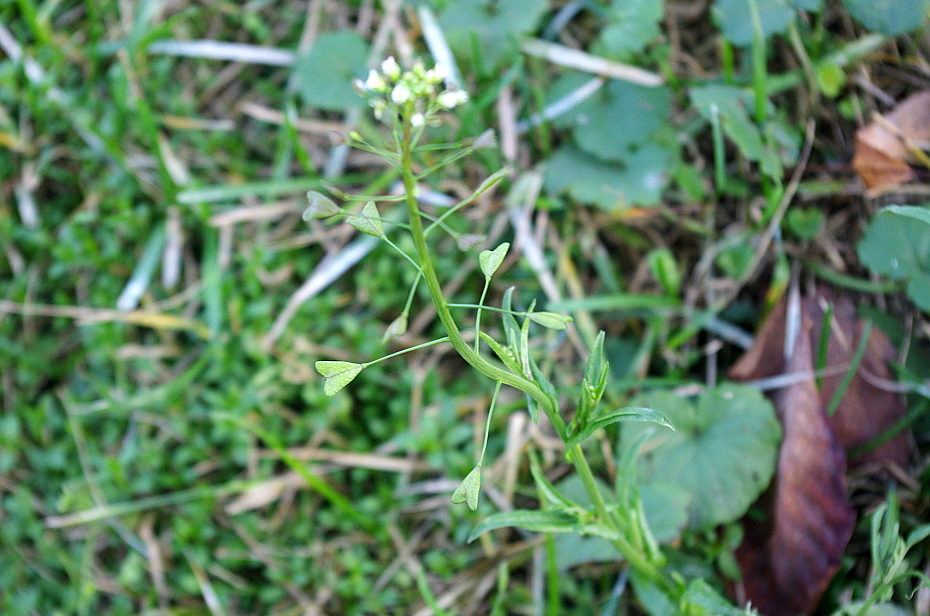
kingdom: Plantae
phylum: Tracheophyta
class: Magnoliopsida
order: Brassicales
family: Brassicaceae
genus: Capsella
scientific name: Capsella bursa-pastoris
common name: Shepherd's purse
